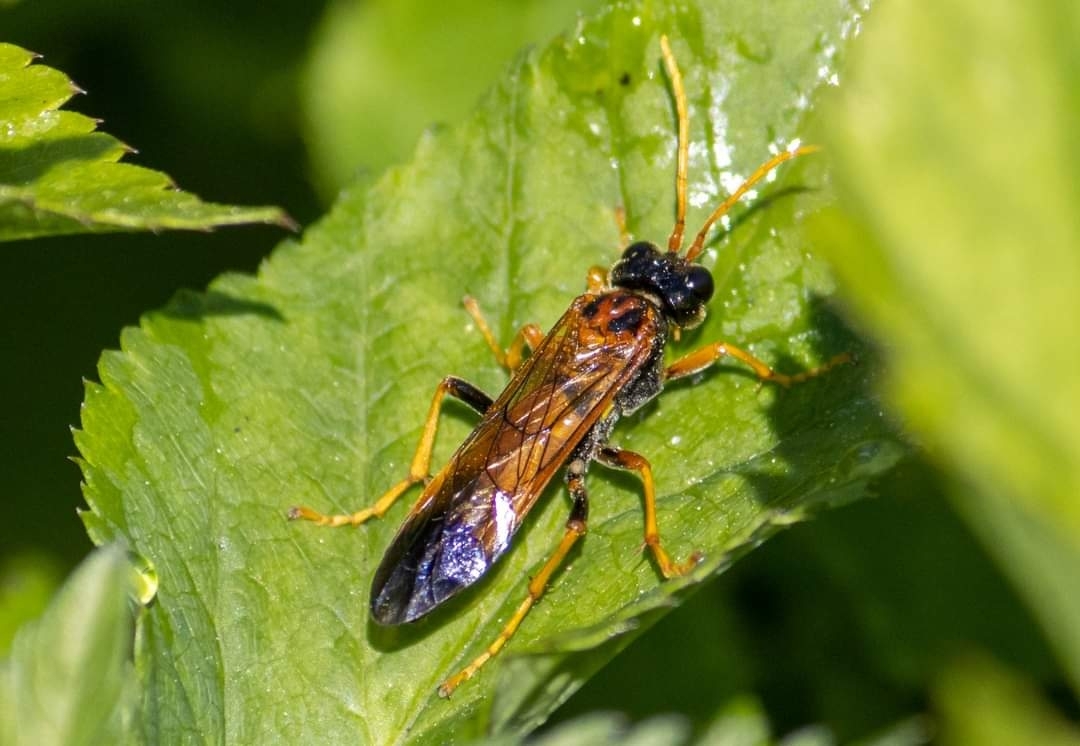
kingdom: Animalia
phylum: Arthropoda
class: Insecta
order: Hymenoptera
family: Tenthredinidae
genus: Tenthredo
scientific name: Tenthredo campestris
